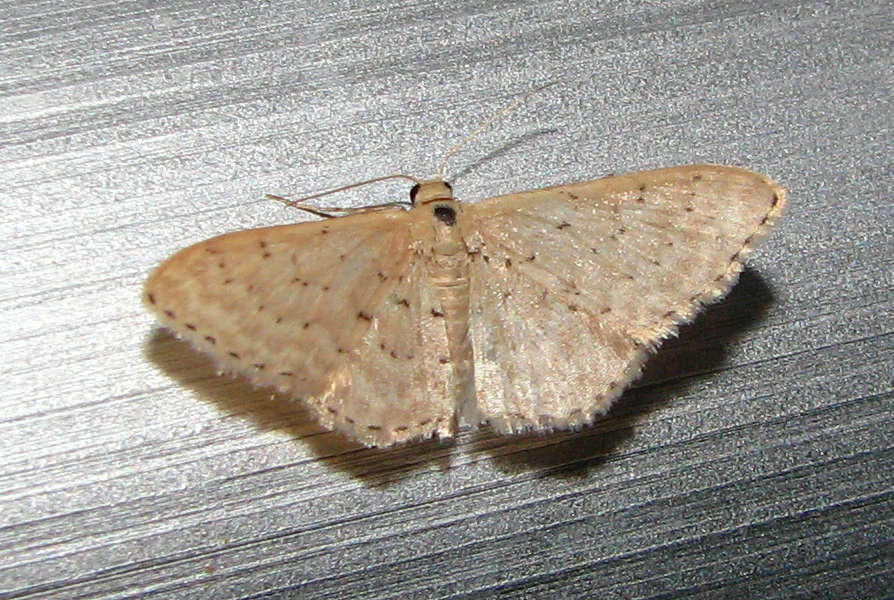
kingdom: Animalia
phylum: Arthropoda
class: Insecta
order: Lepidoptera
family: Geometridae
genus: Idaea
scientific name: Idaea philocosma
